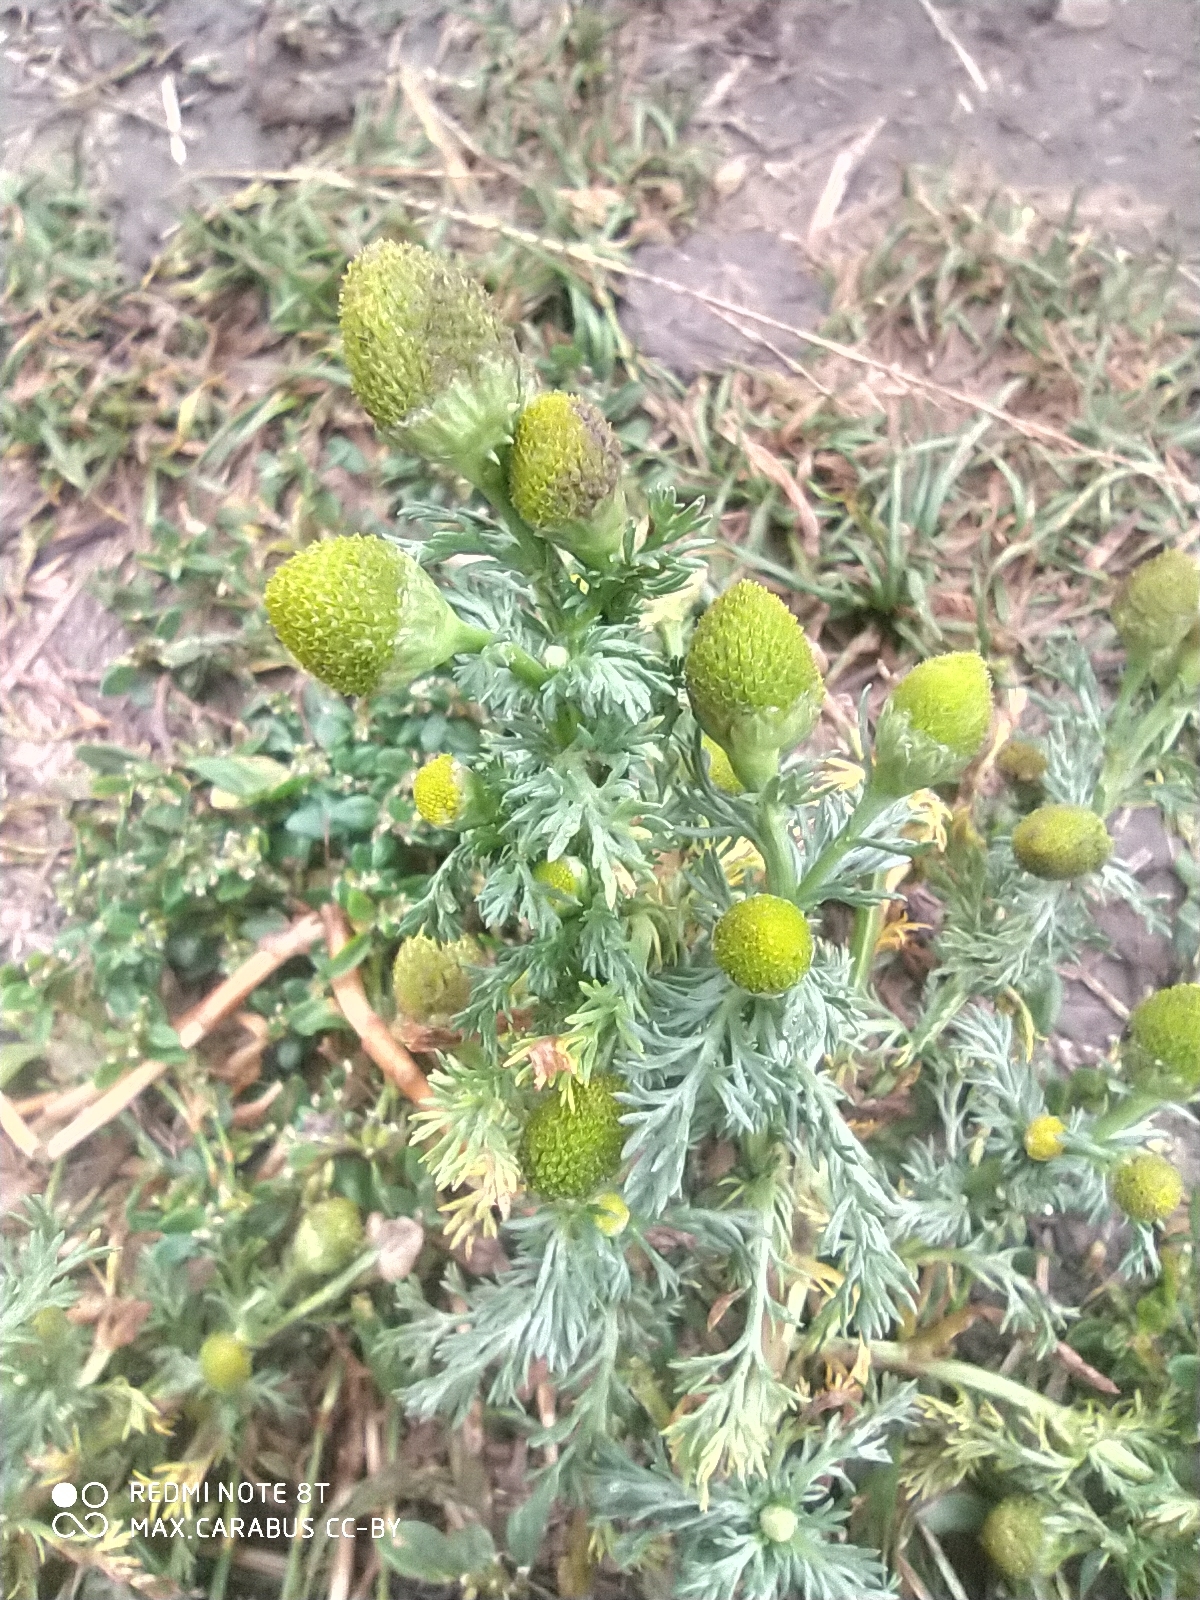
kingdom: Plantae
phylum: Tracheophyta
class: Magnoliopsida
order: Asterales
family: Asteraceae
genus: Matricaria
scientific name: Matricaria discoidea
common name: Disc mayweed
